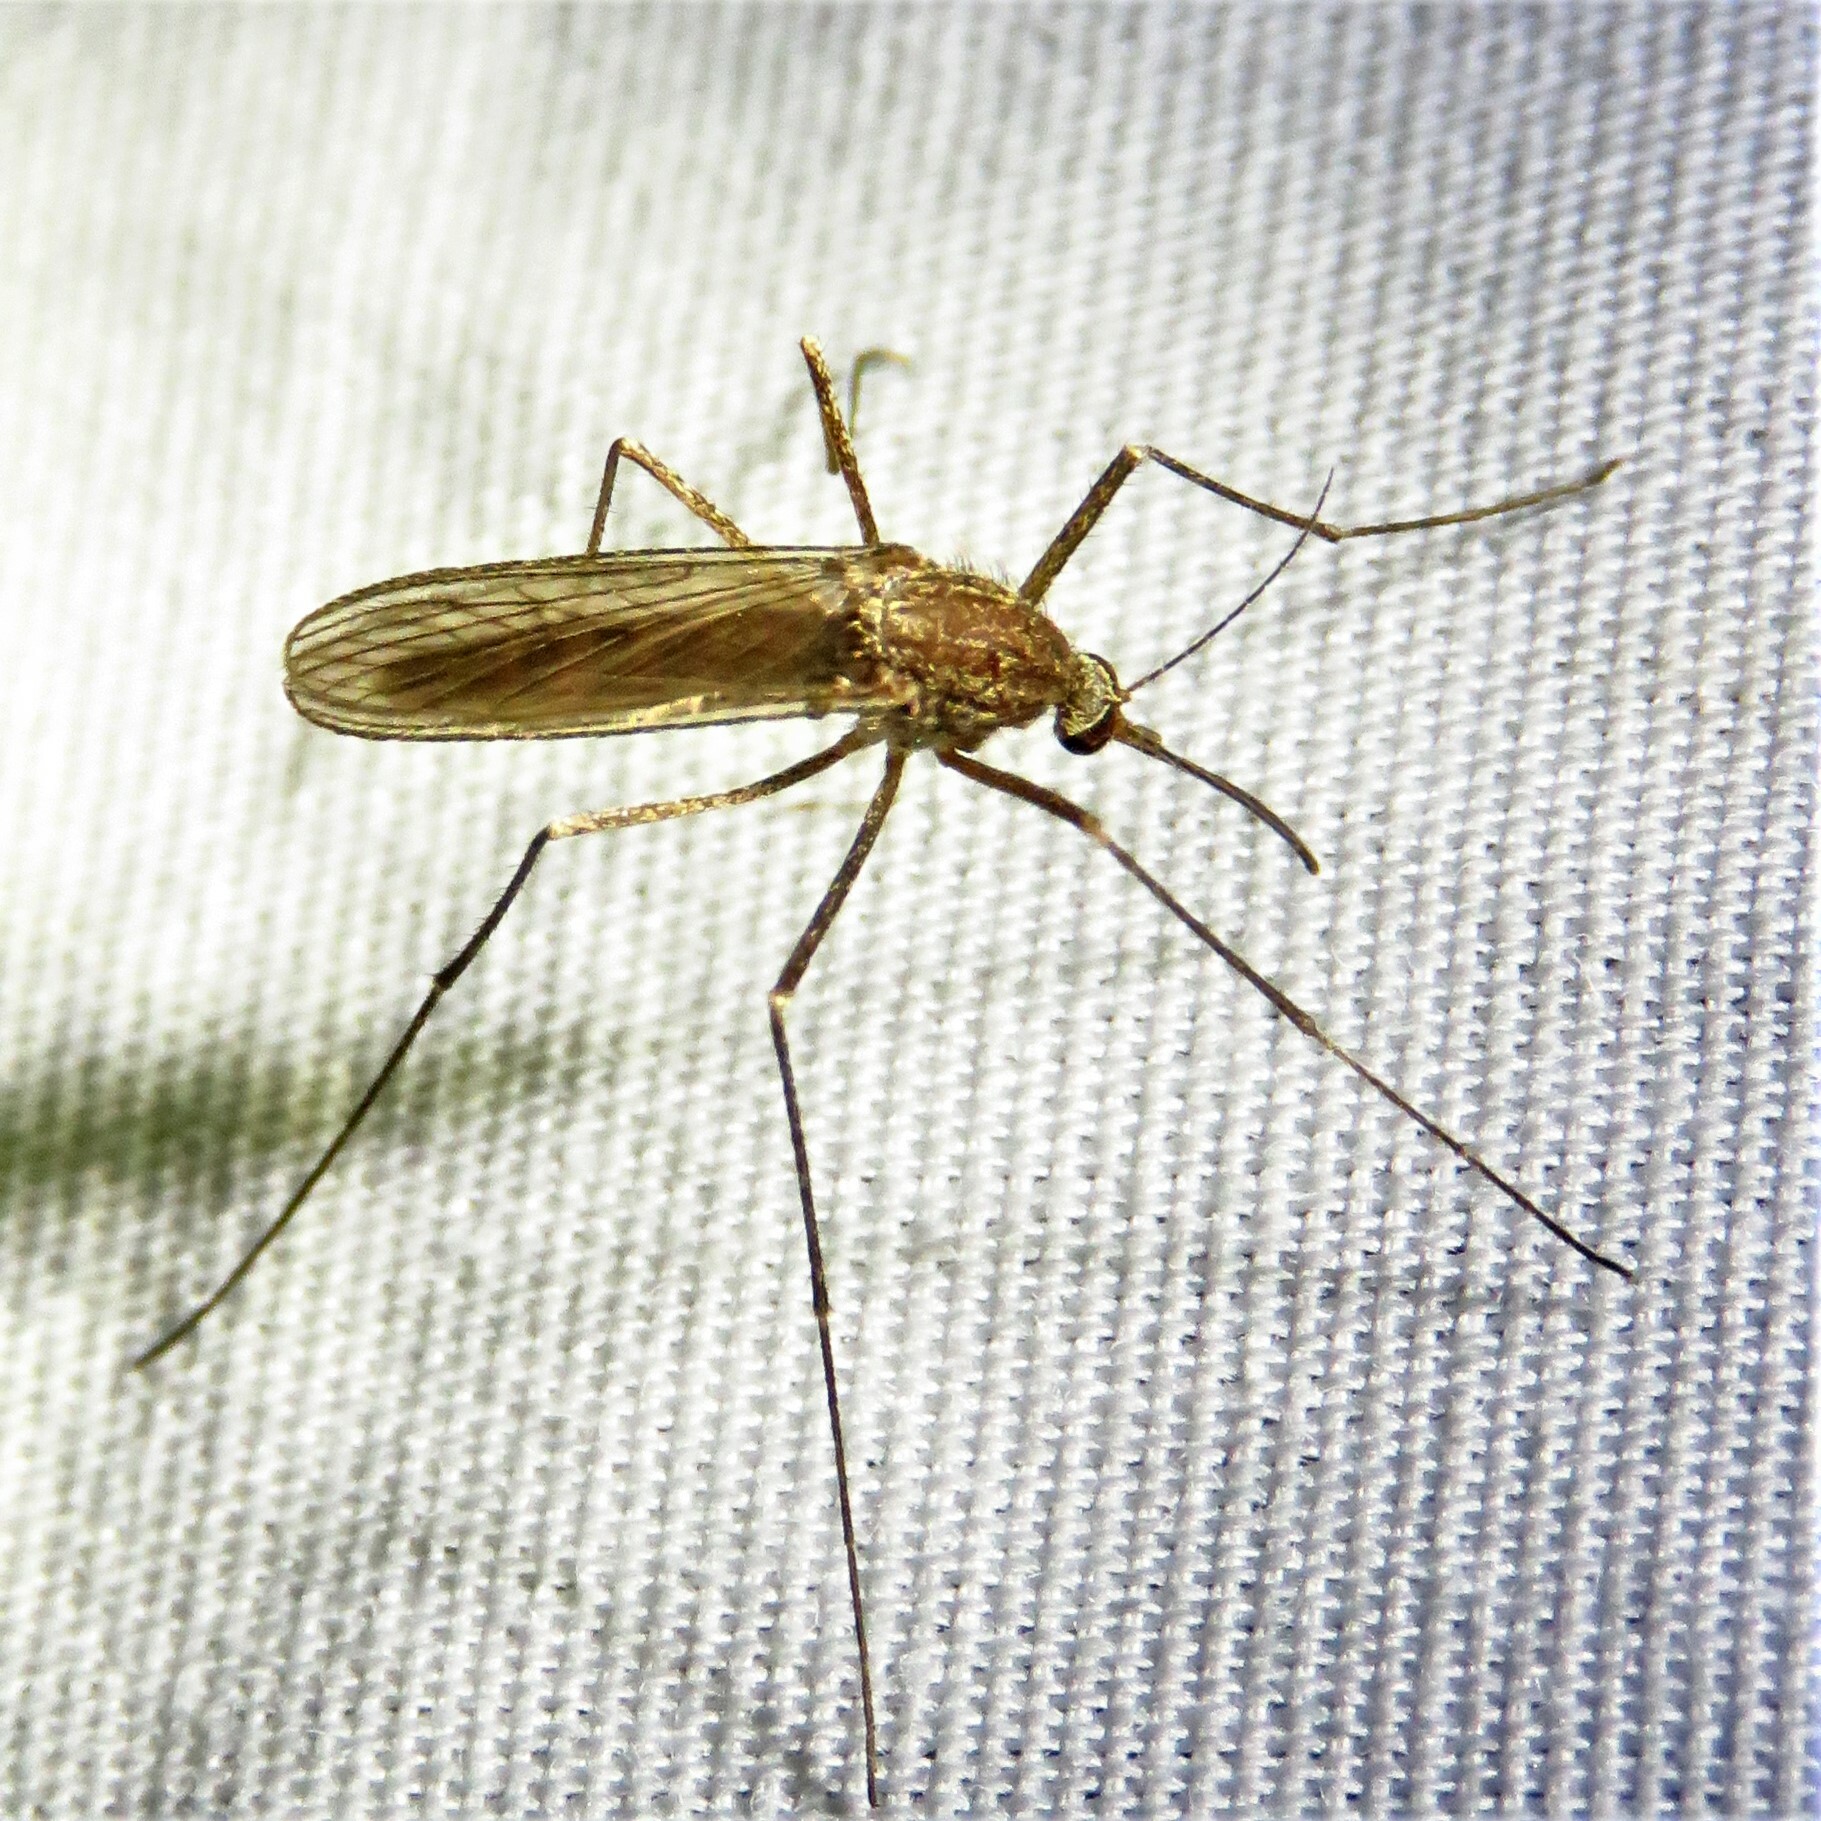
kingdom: Animalia
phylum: Arthropoda
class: Insecta
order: Diptera
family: Culicidae
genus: Culiseta
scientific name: Culiseta inornata
